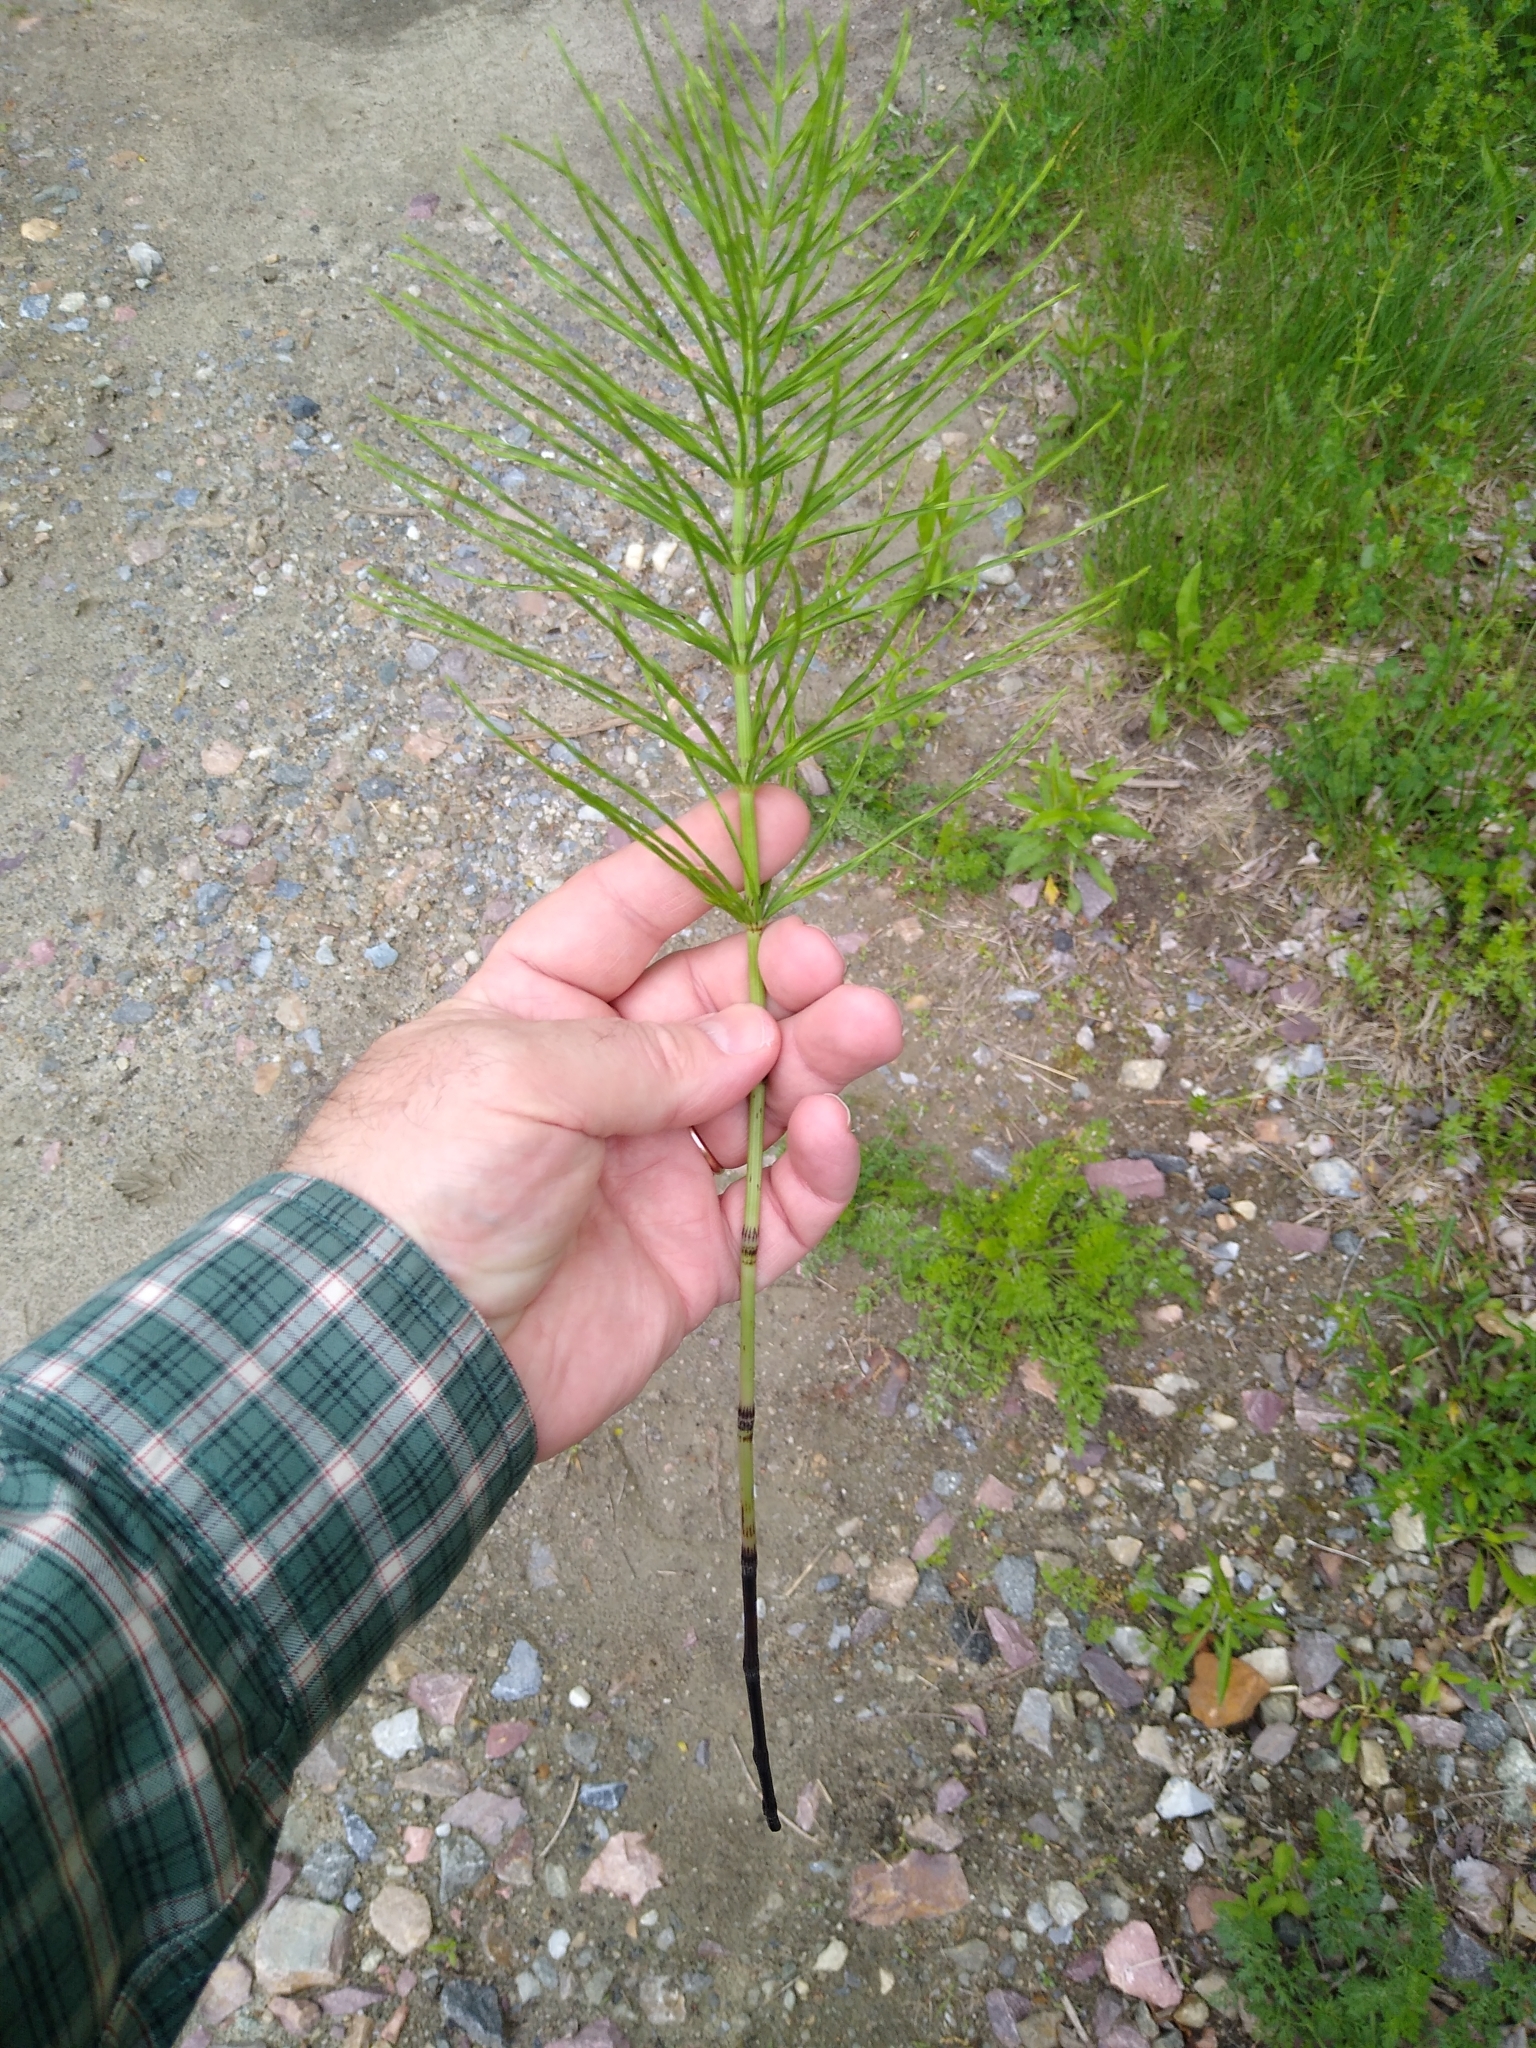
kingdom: Plantae
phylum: Tracheophyta
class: Polypodiopsida
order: Equisetales
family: Equisetaceae
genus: Equisetum
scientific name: Equisetum arvense
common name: Field horsetail
